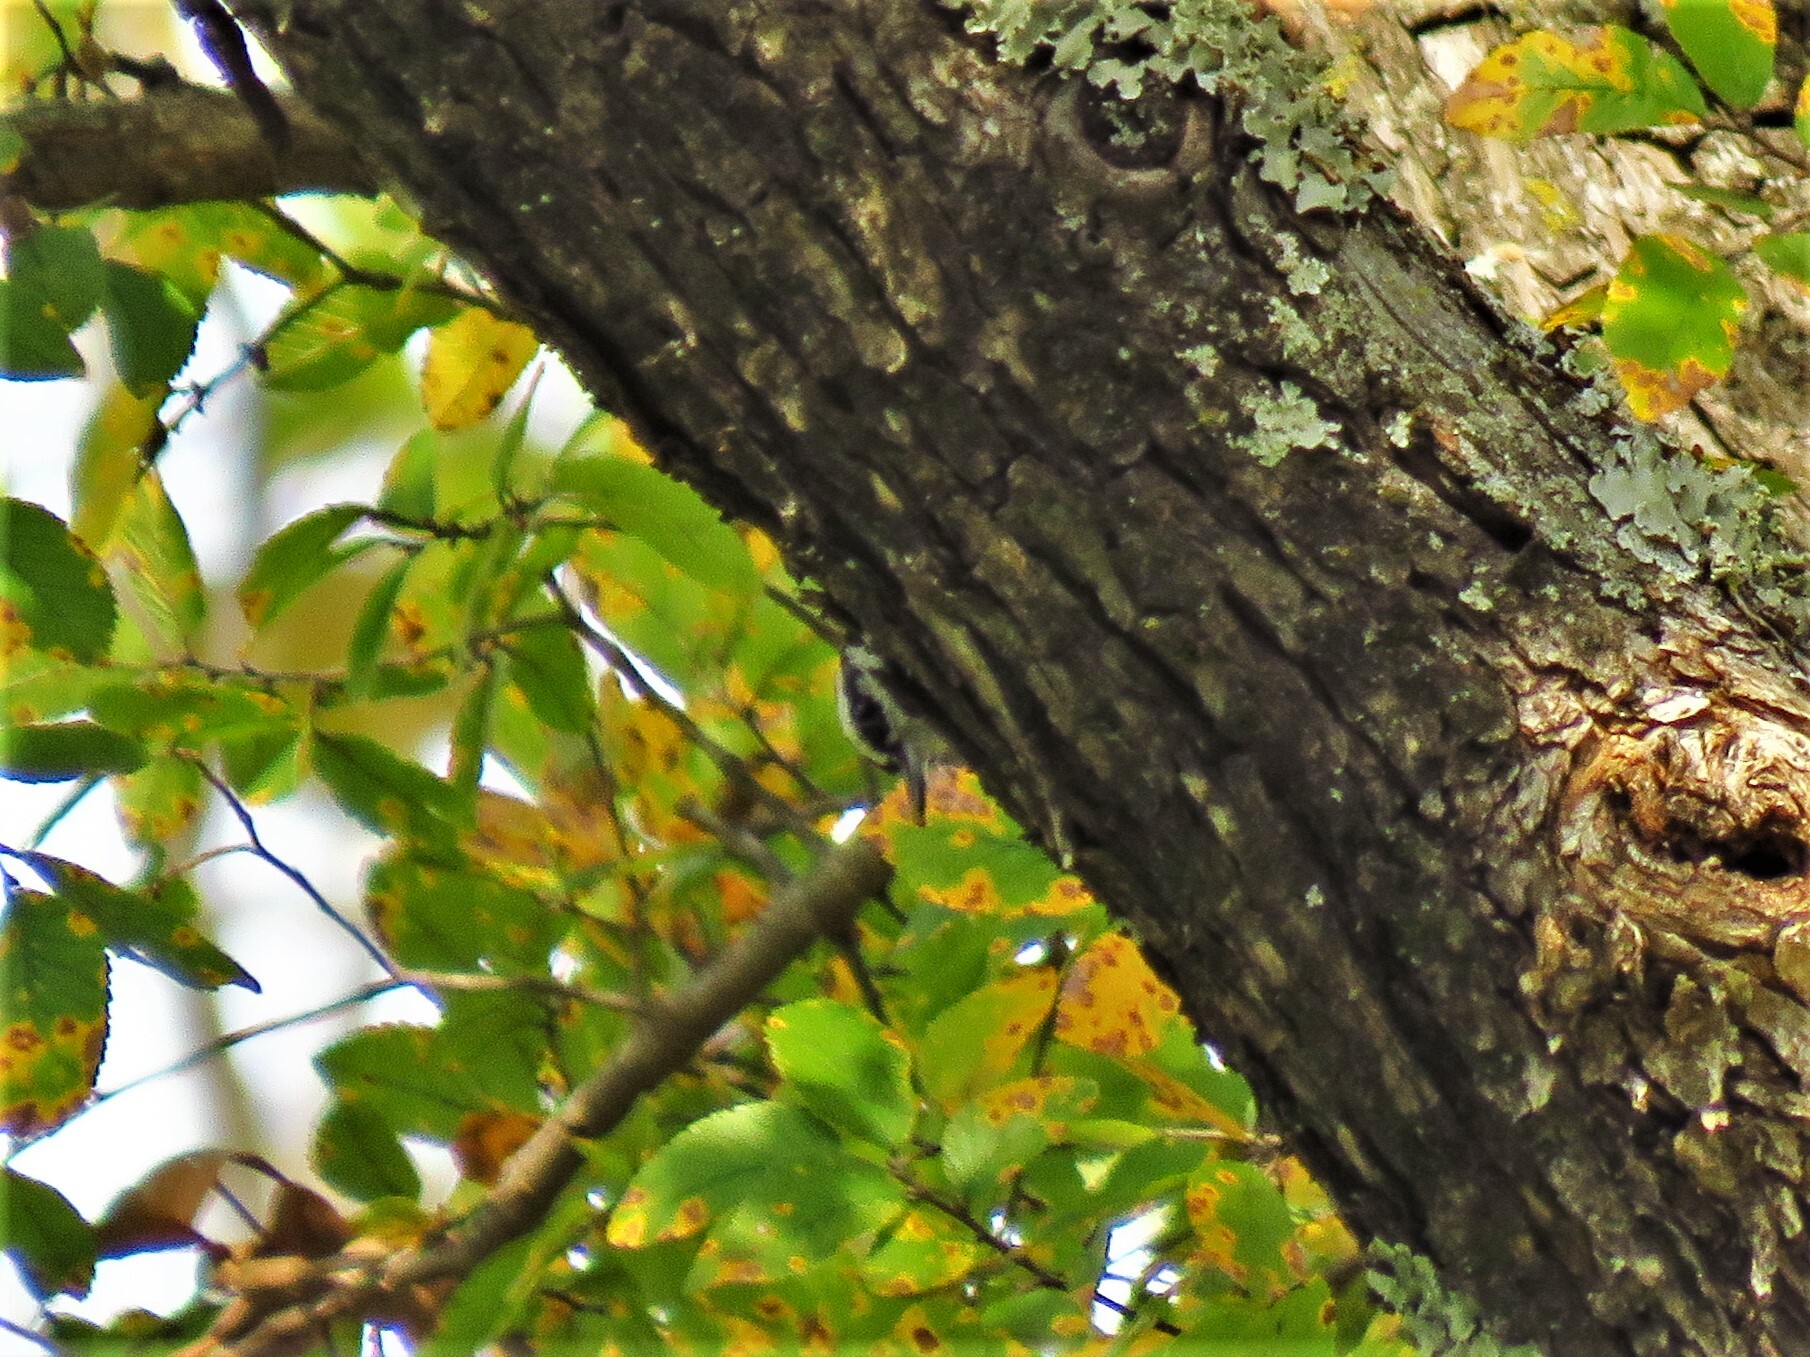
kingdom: Animalia
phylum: Chordata
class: Aves
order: Passeriformes
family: Sittidae
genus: Sitta
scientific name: Sitta canadensis
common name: Red-breasted nuthatch
